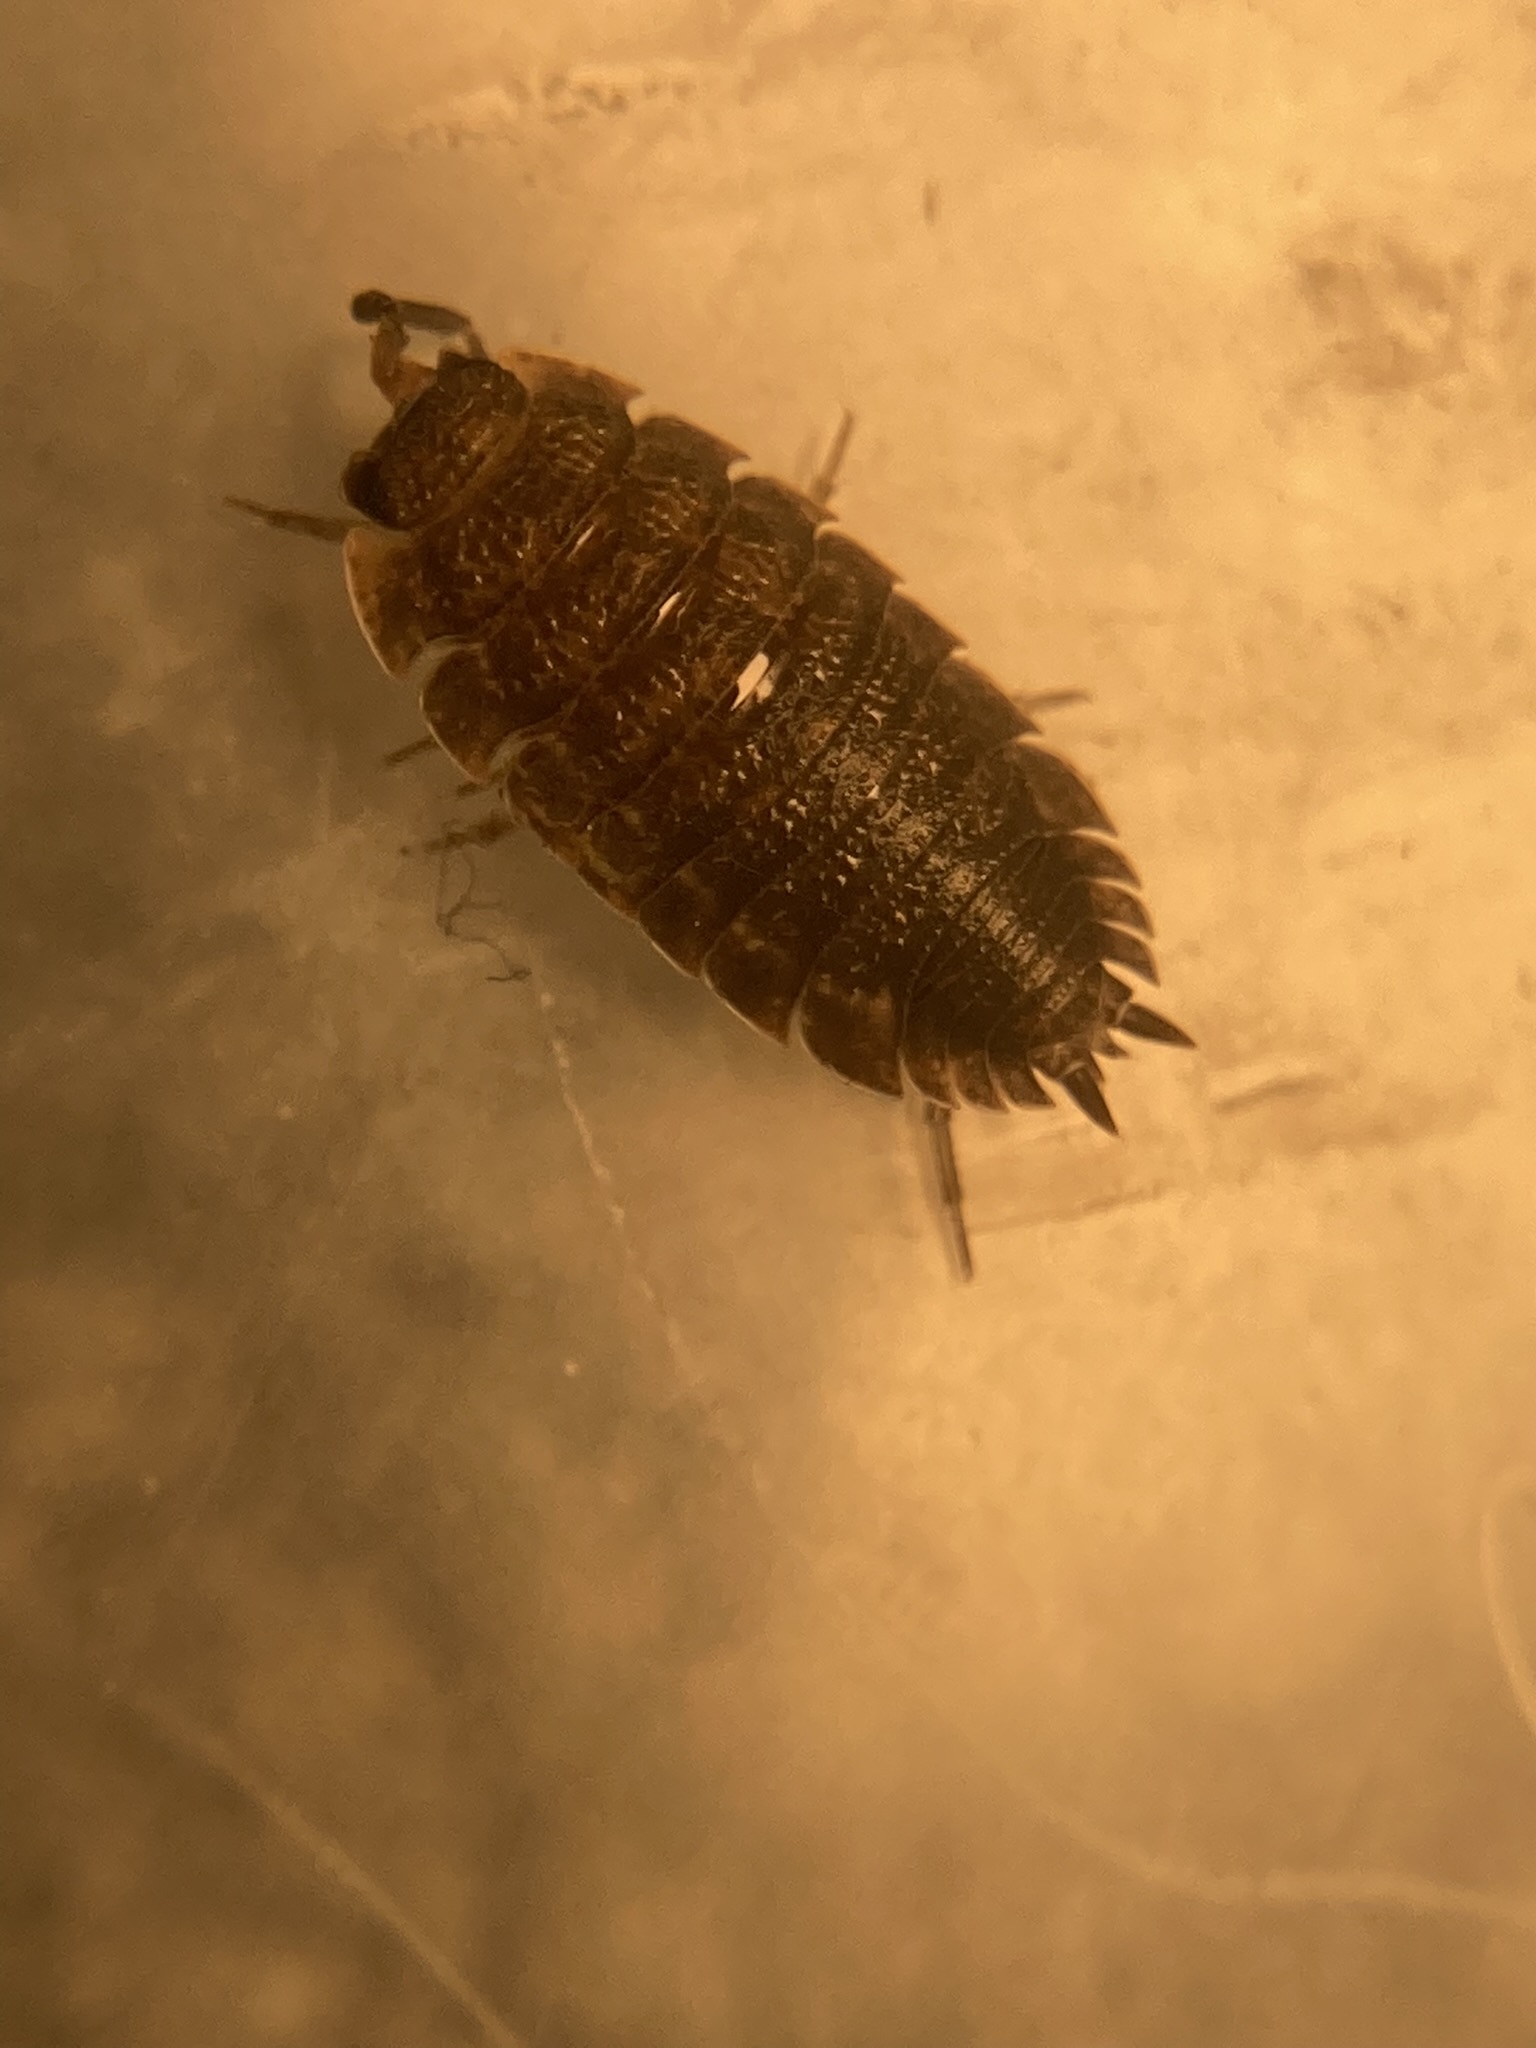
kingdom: Animalia
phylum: Arthropoda
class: Malacostraca
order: Isopoda
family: Porcellionidae
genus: Porcellio
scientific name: Porcellio scaber
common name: Common rough woodlouse
